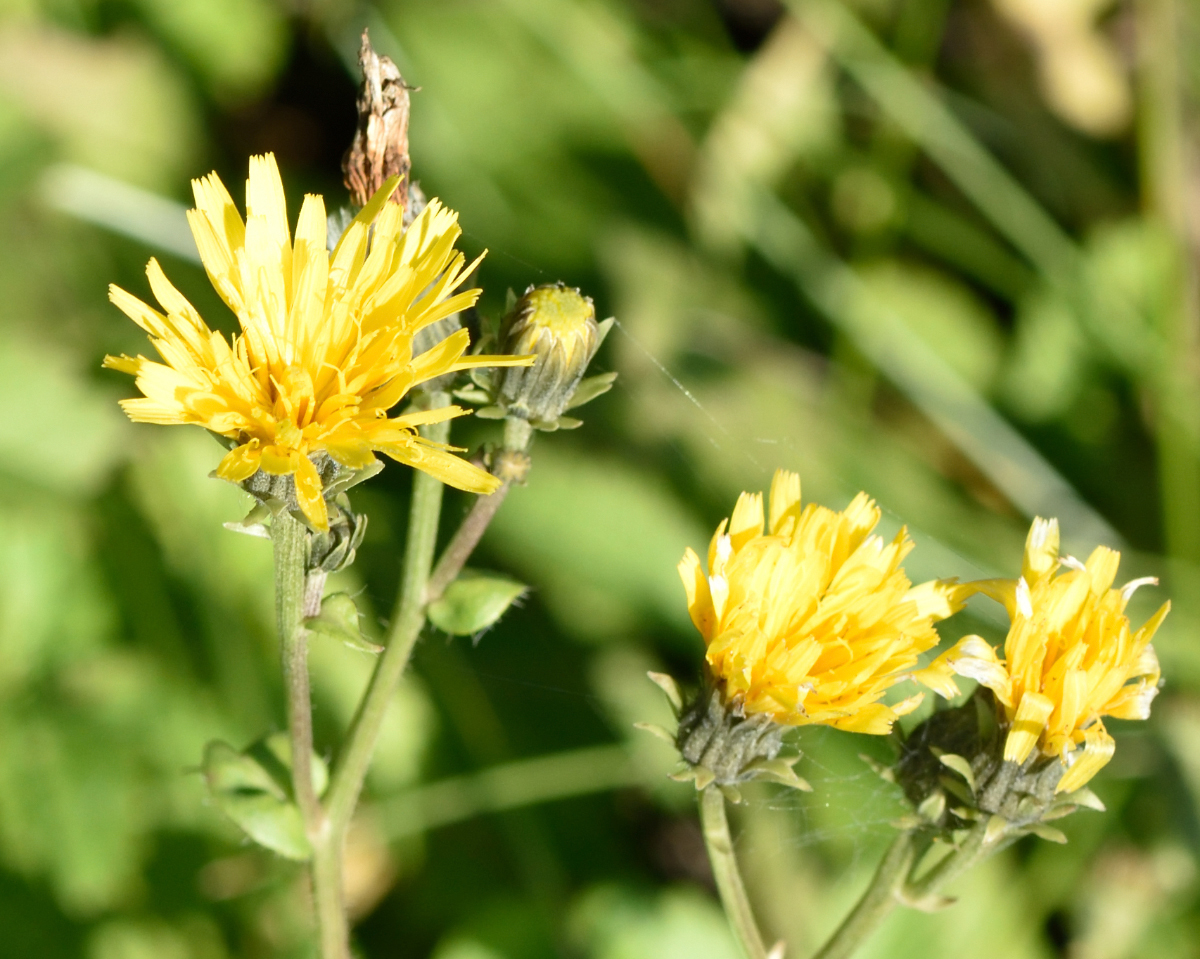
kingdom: Plantae
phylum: Tracheophyta
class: Magnoliopsida
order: Asterales
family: Asteraceae
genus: Picris
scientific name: Picris hieracioides
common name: Hawkweed oxtongue
